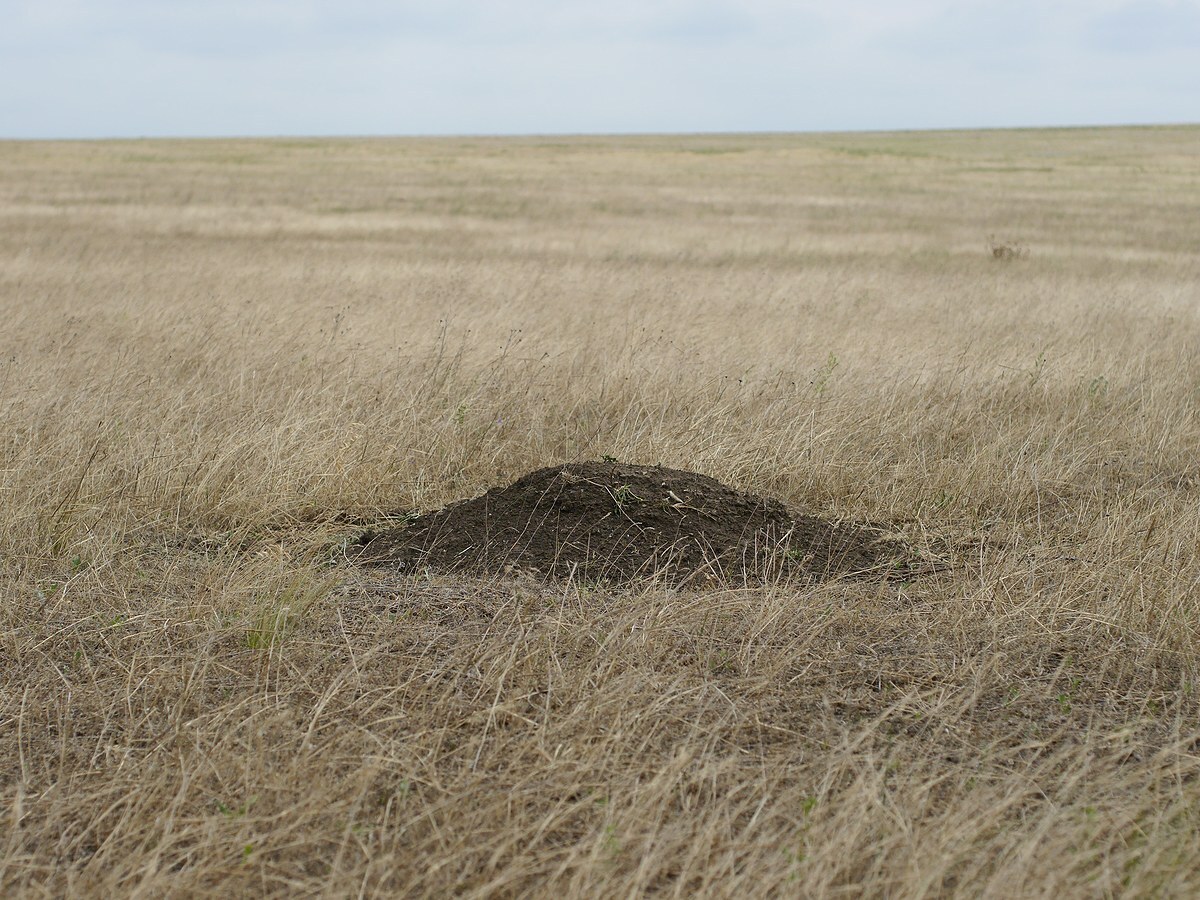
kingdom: Animalia
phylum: Chordata
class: Mammalia
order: Rodentia
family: Muridae
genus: Mus
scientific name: Mus spicilegus
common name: Mound-building mouse
